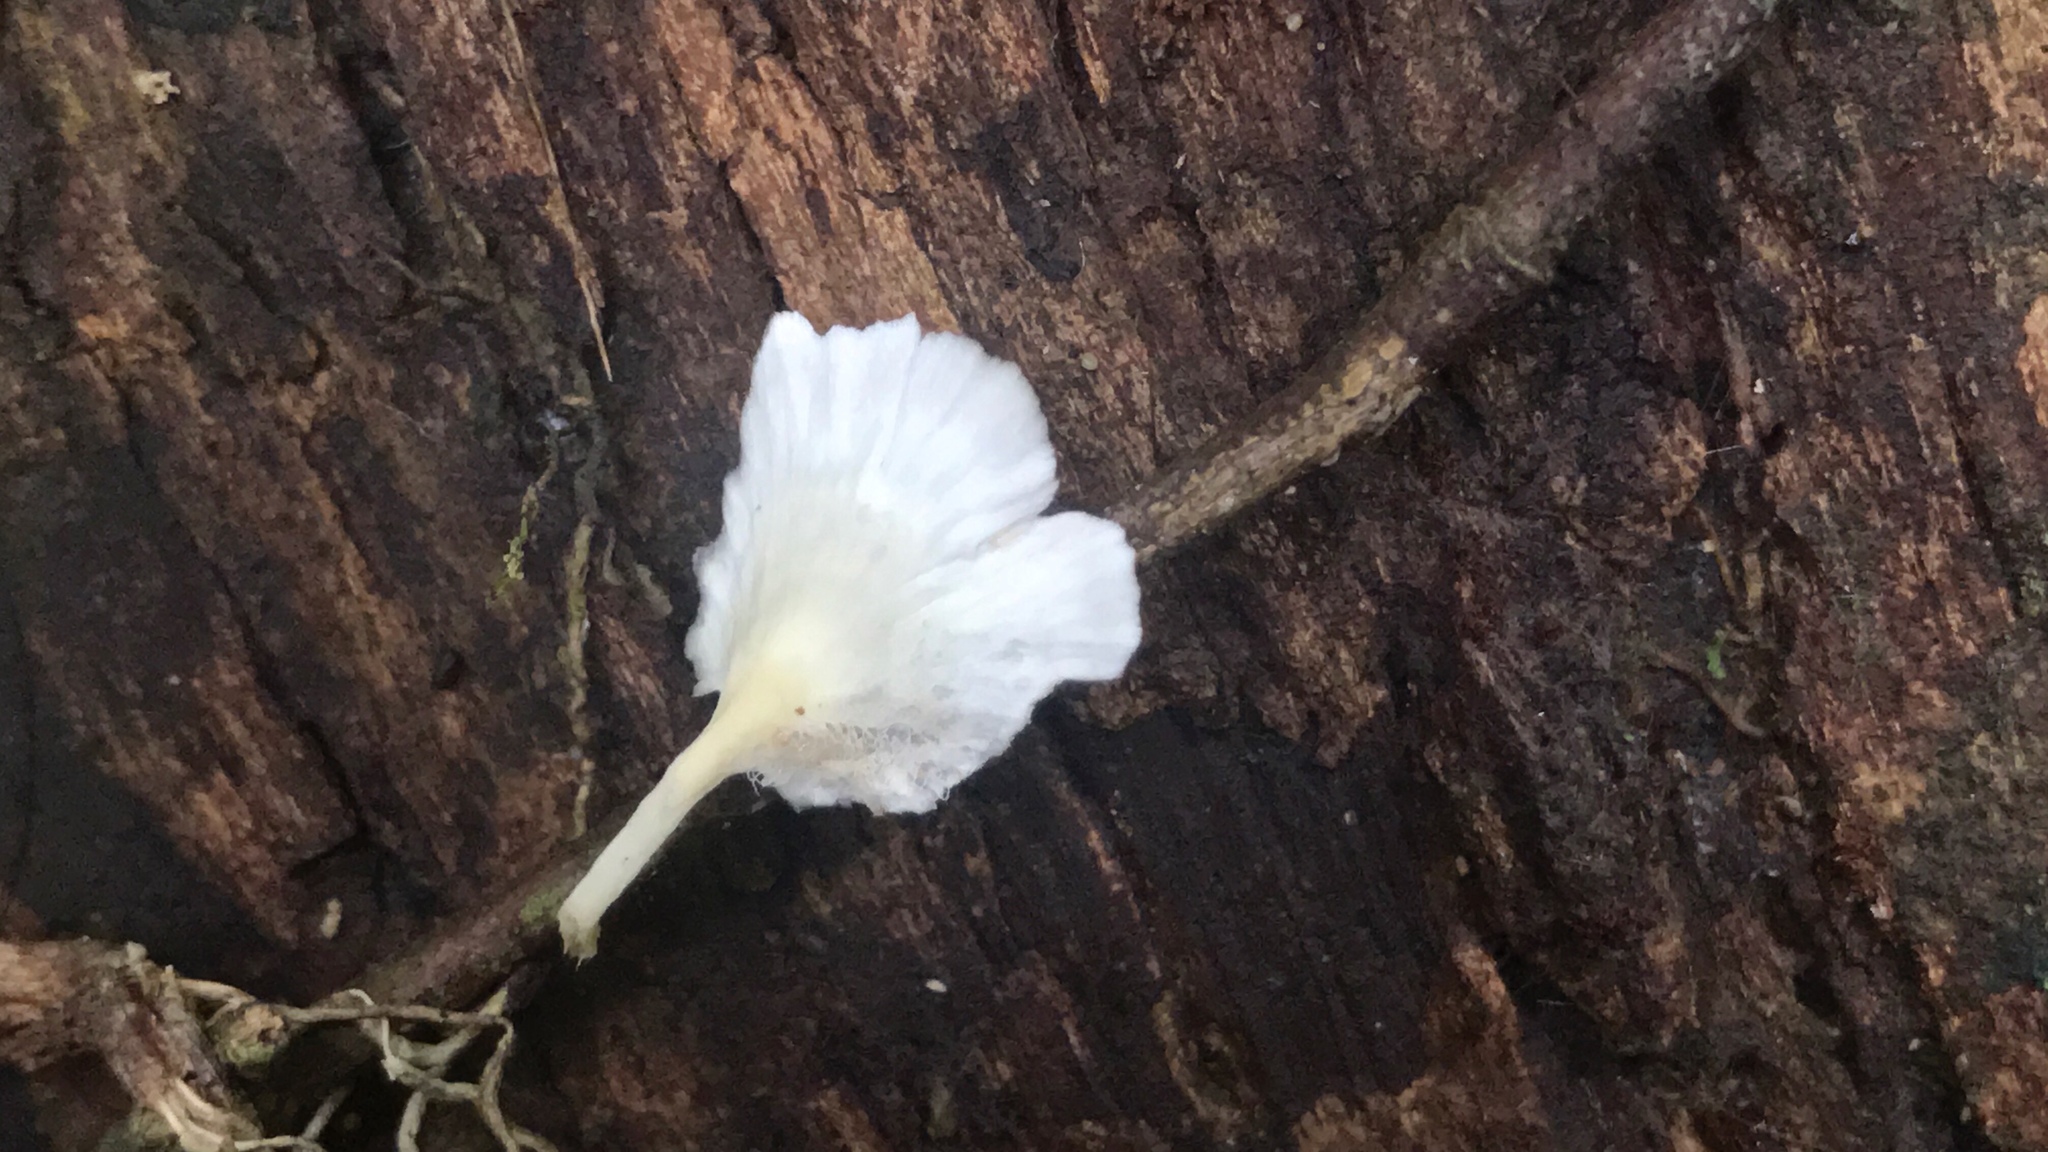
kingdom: Fungi
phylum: Basidiomycota
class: Agaricomycetes
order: Hymenochaetales
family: Rickenellaceae
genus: Cotylidia
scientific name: Cotylidia diaphana
